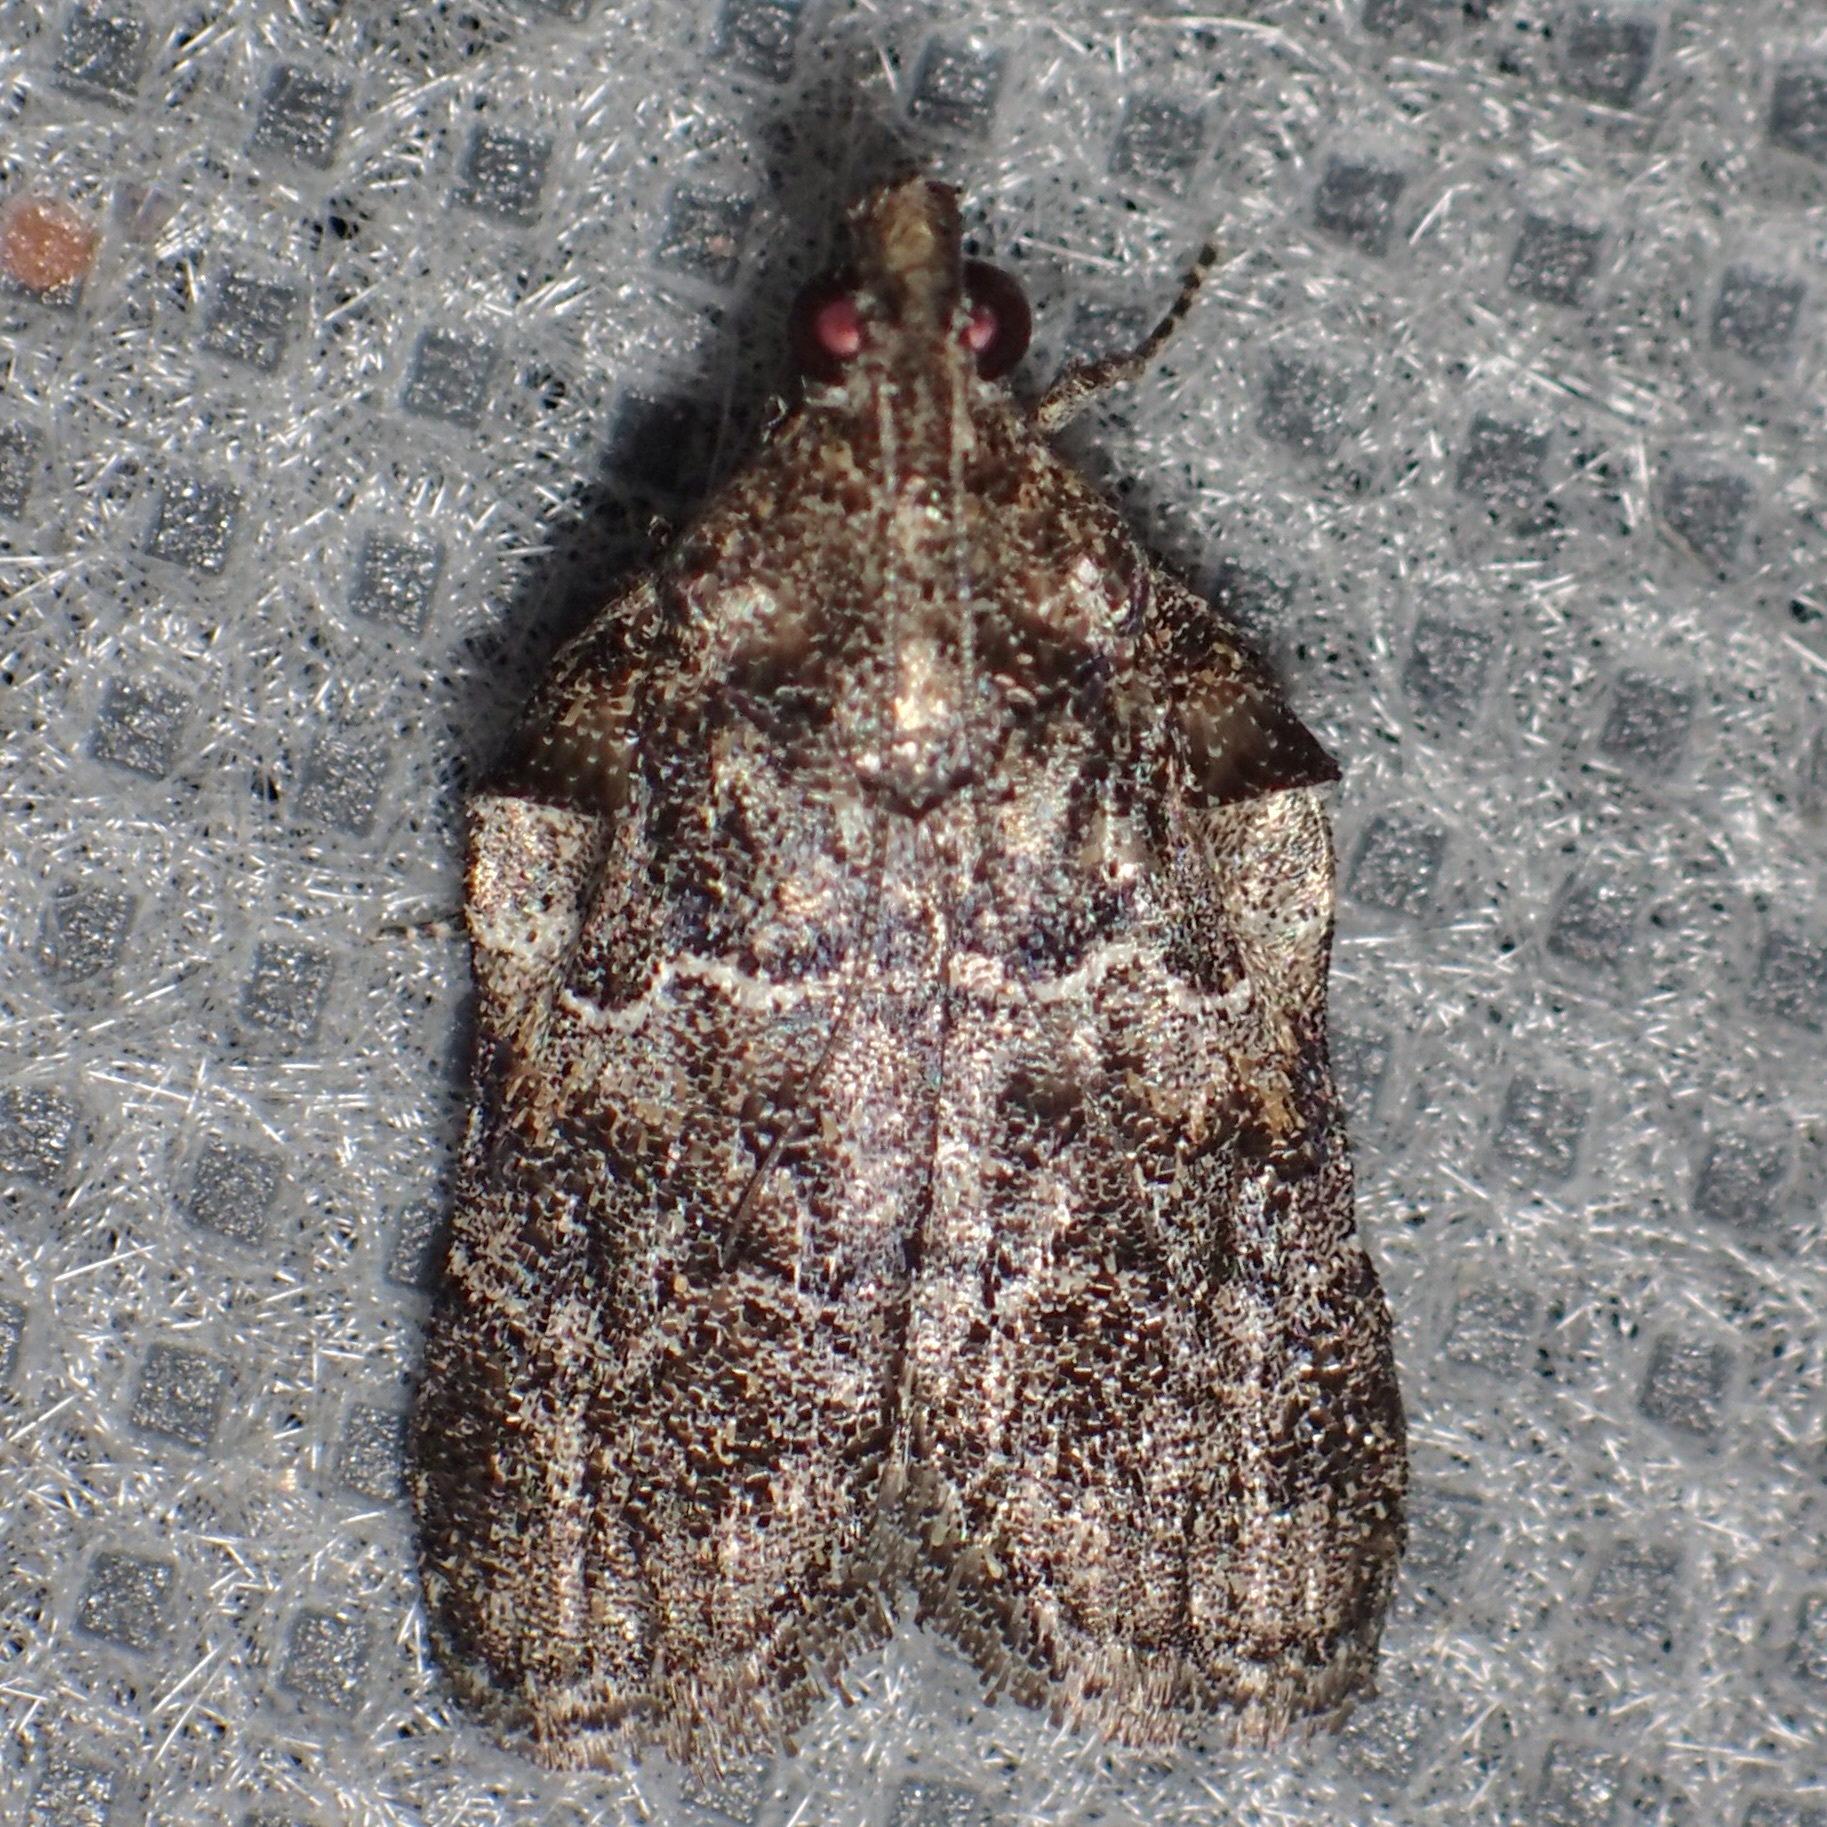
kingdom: Animalia
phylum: Arthropoda
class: Insecta
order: Lepidoptera
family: Pyralidae
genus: Satole
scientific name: Satole ligniperdalis
